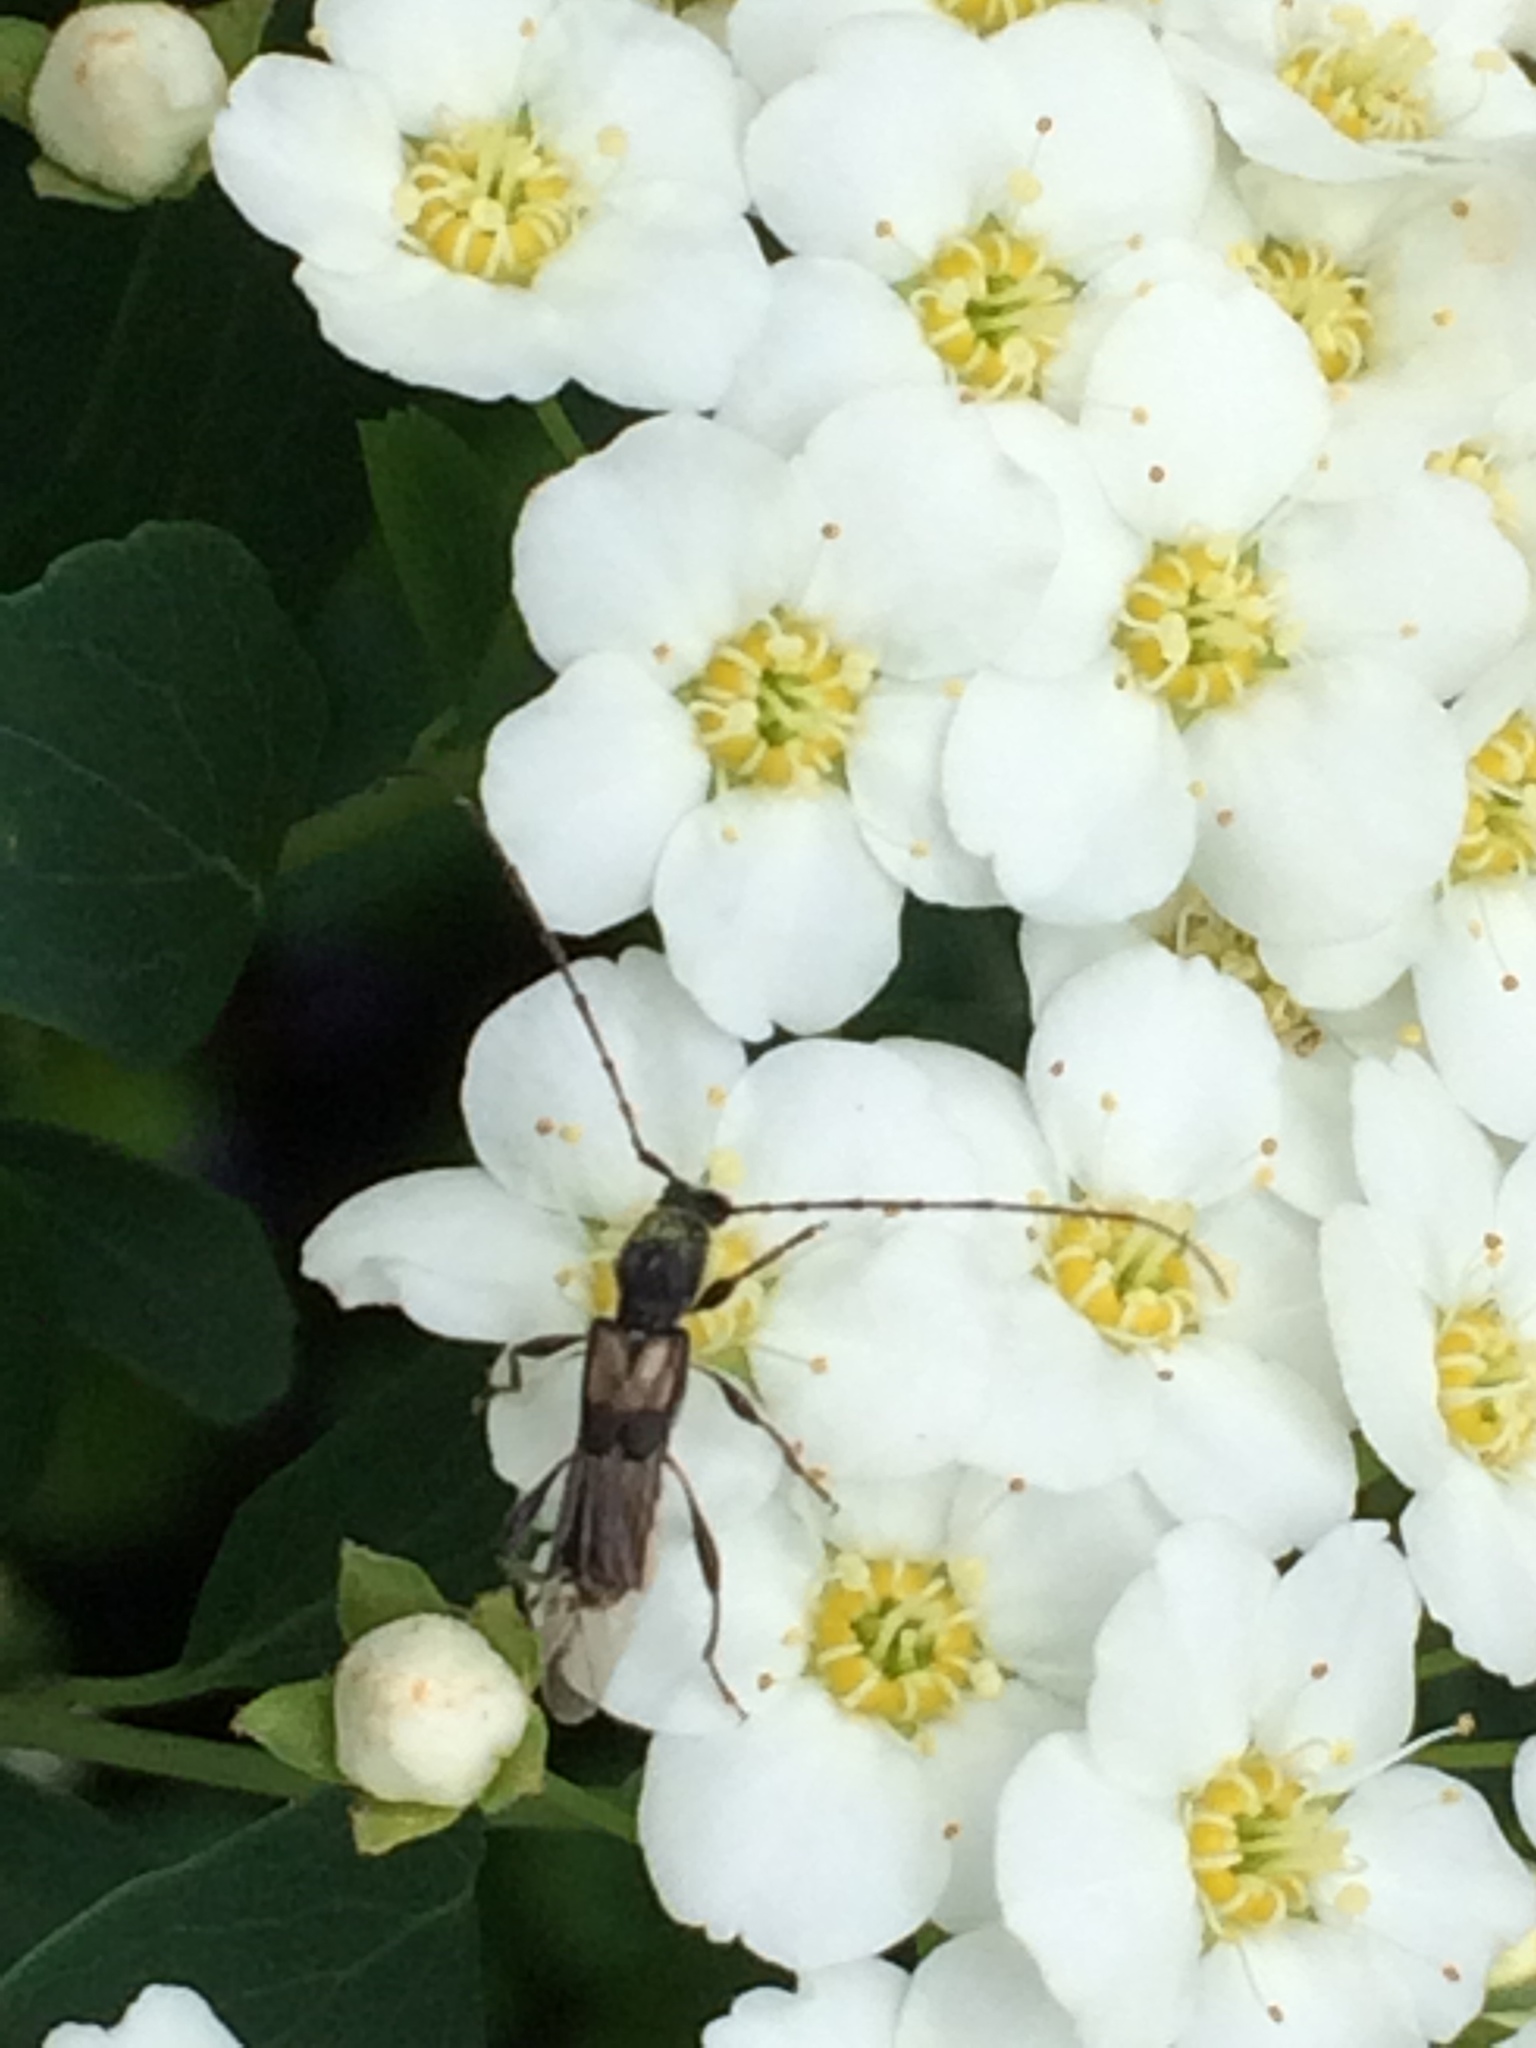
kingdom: Animalia
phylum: Arthropoda
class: Insecta
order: Coleoptera
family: Cerambycidae
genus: Molorchus
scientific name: Molorchus bimaculatus
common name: Bimaculate longhorn beetle
